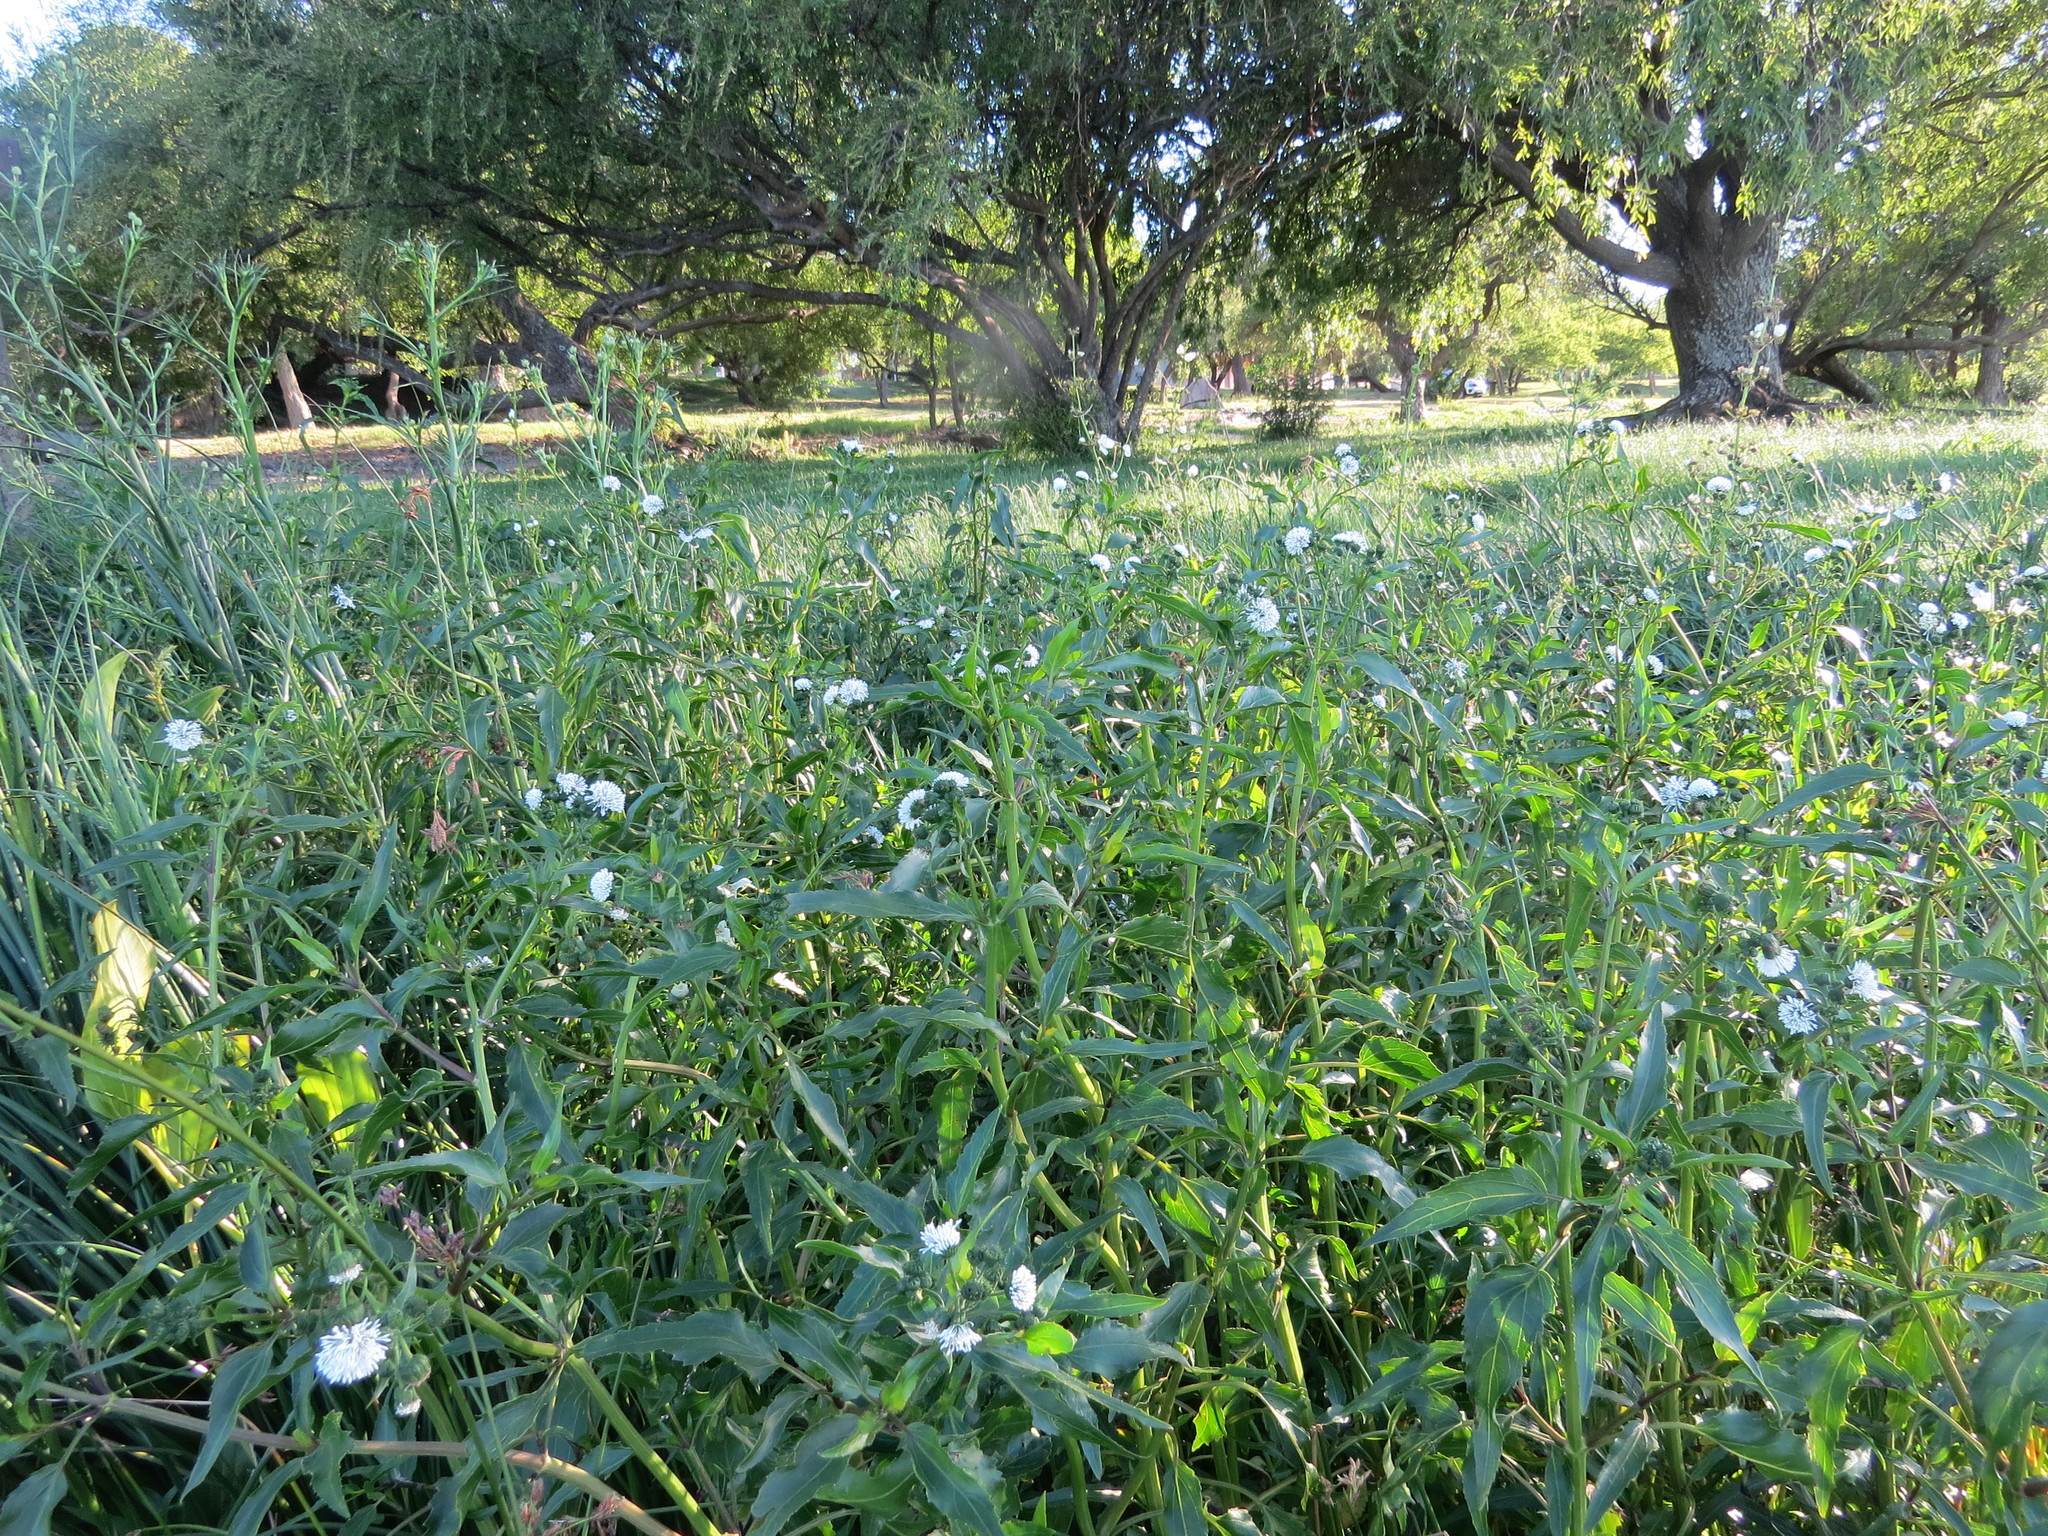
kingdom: Plantae
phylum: Tracheophyta
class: Magnoliopsida
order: Asterales
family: Asteraceae
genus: Gymnocoronis
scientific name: Gymnocoronis spilanthoides
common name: Senegal teaplant
